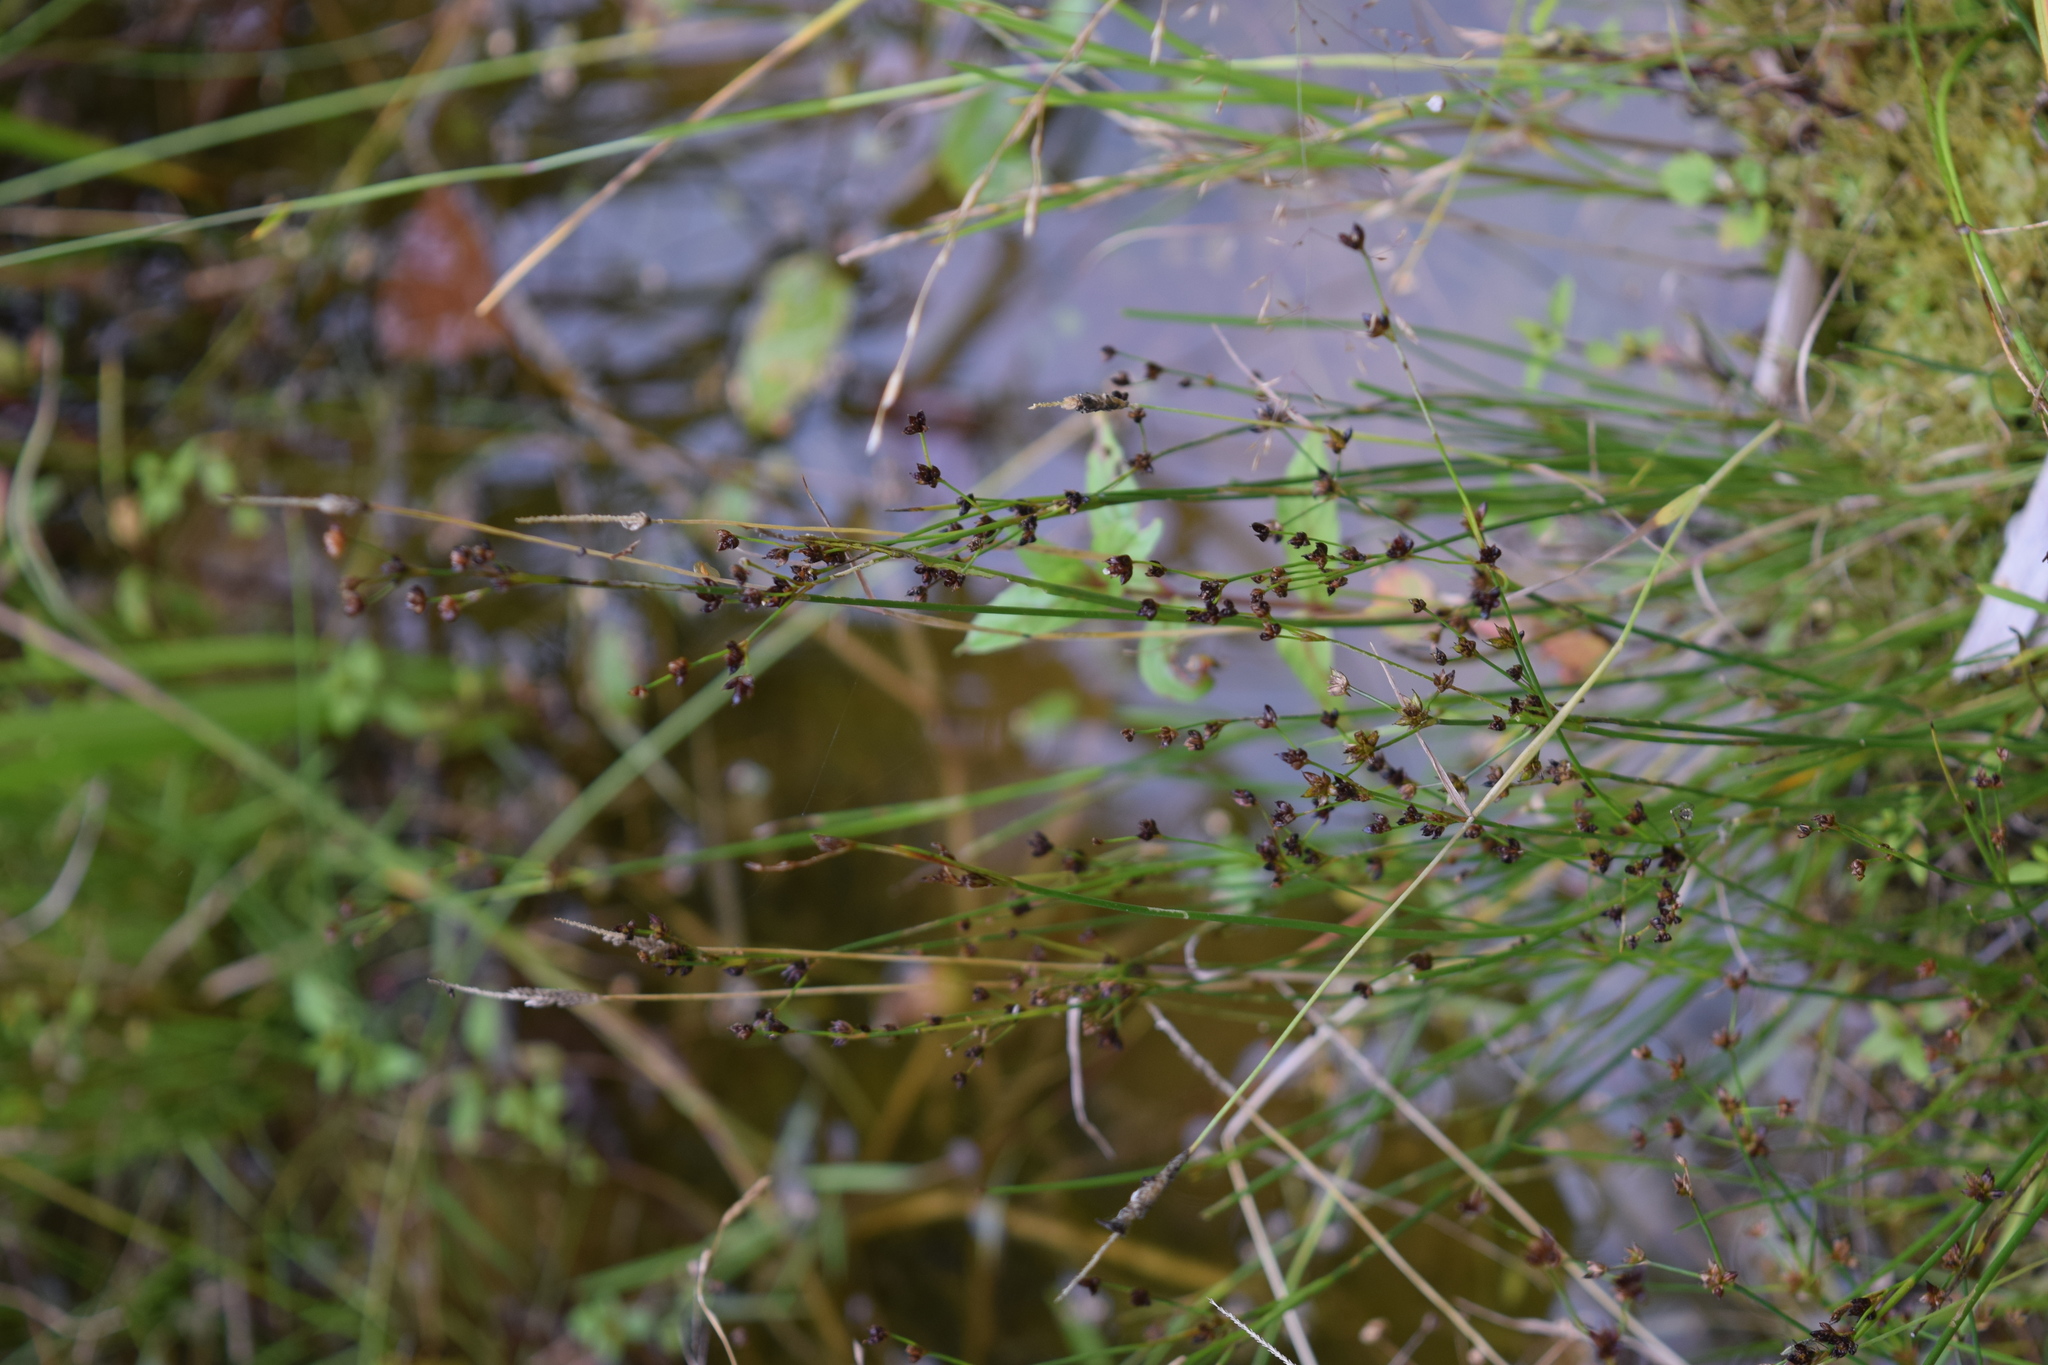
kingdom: Plantae
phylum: Tracheophyta
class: Liliopsida
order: Poales
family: Juncaceae
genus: Juncus
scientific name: Juncus alpinoarticulatus
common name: Alpine rush
